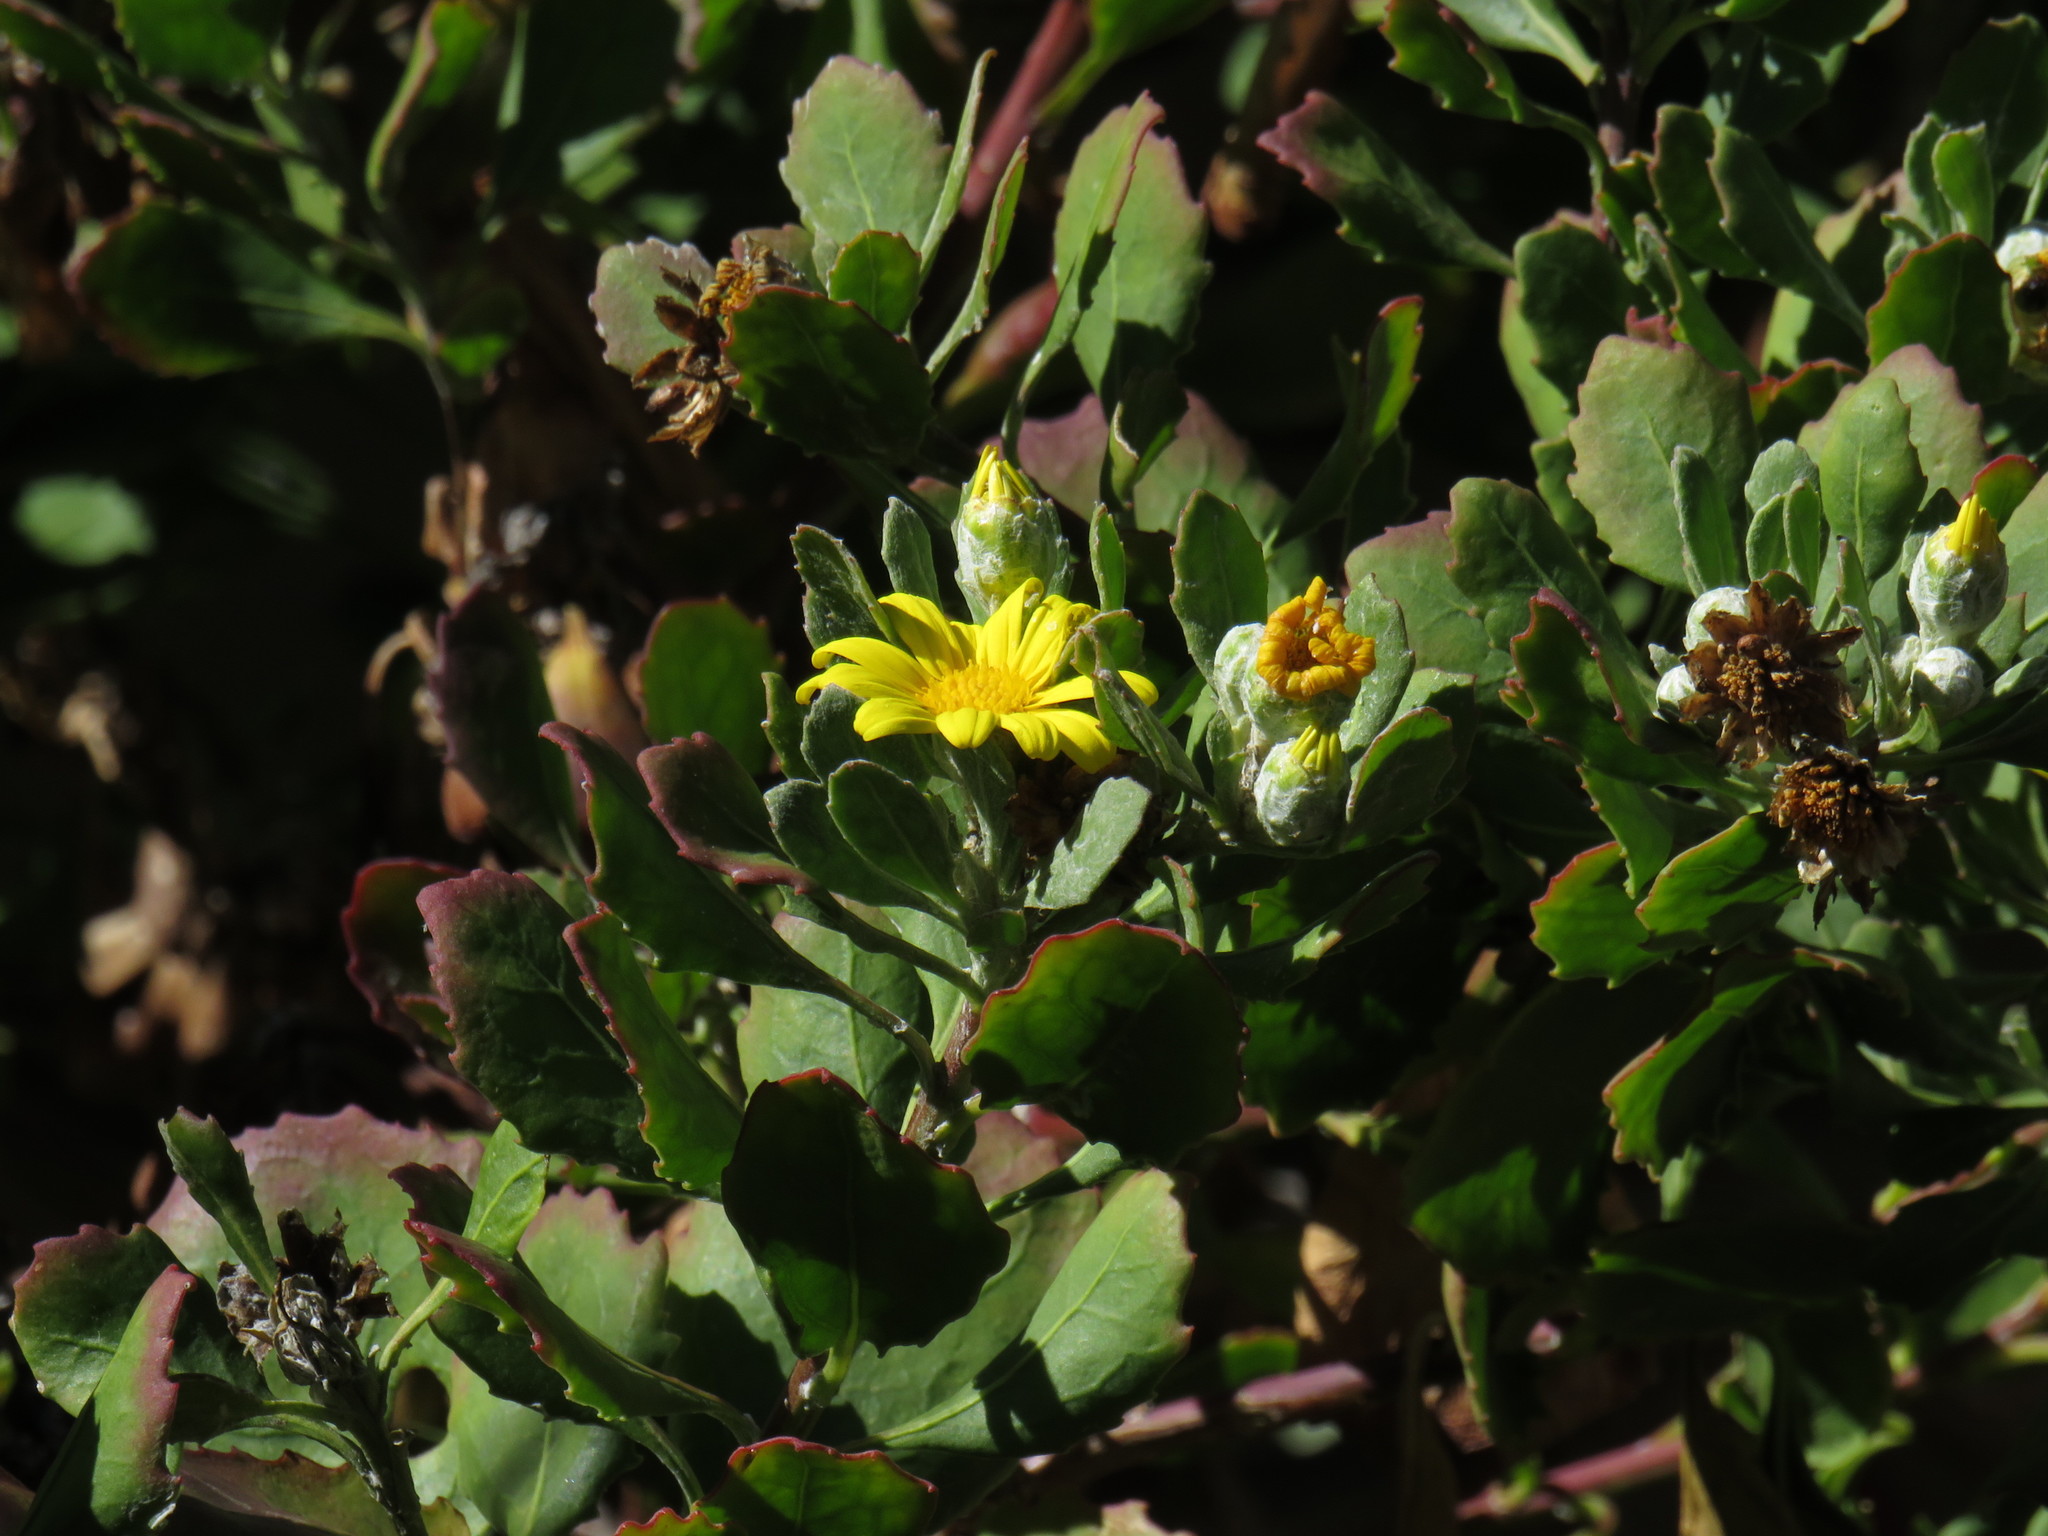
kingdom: Plantae
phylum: Tracheophyta
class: Magnoliopsida
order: Asterales
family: Asteraceae
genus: Osteospermum
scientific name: Osteospermum moniliferum
